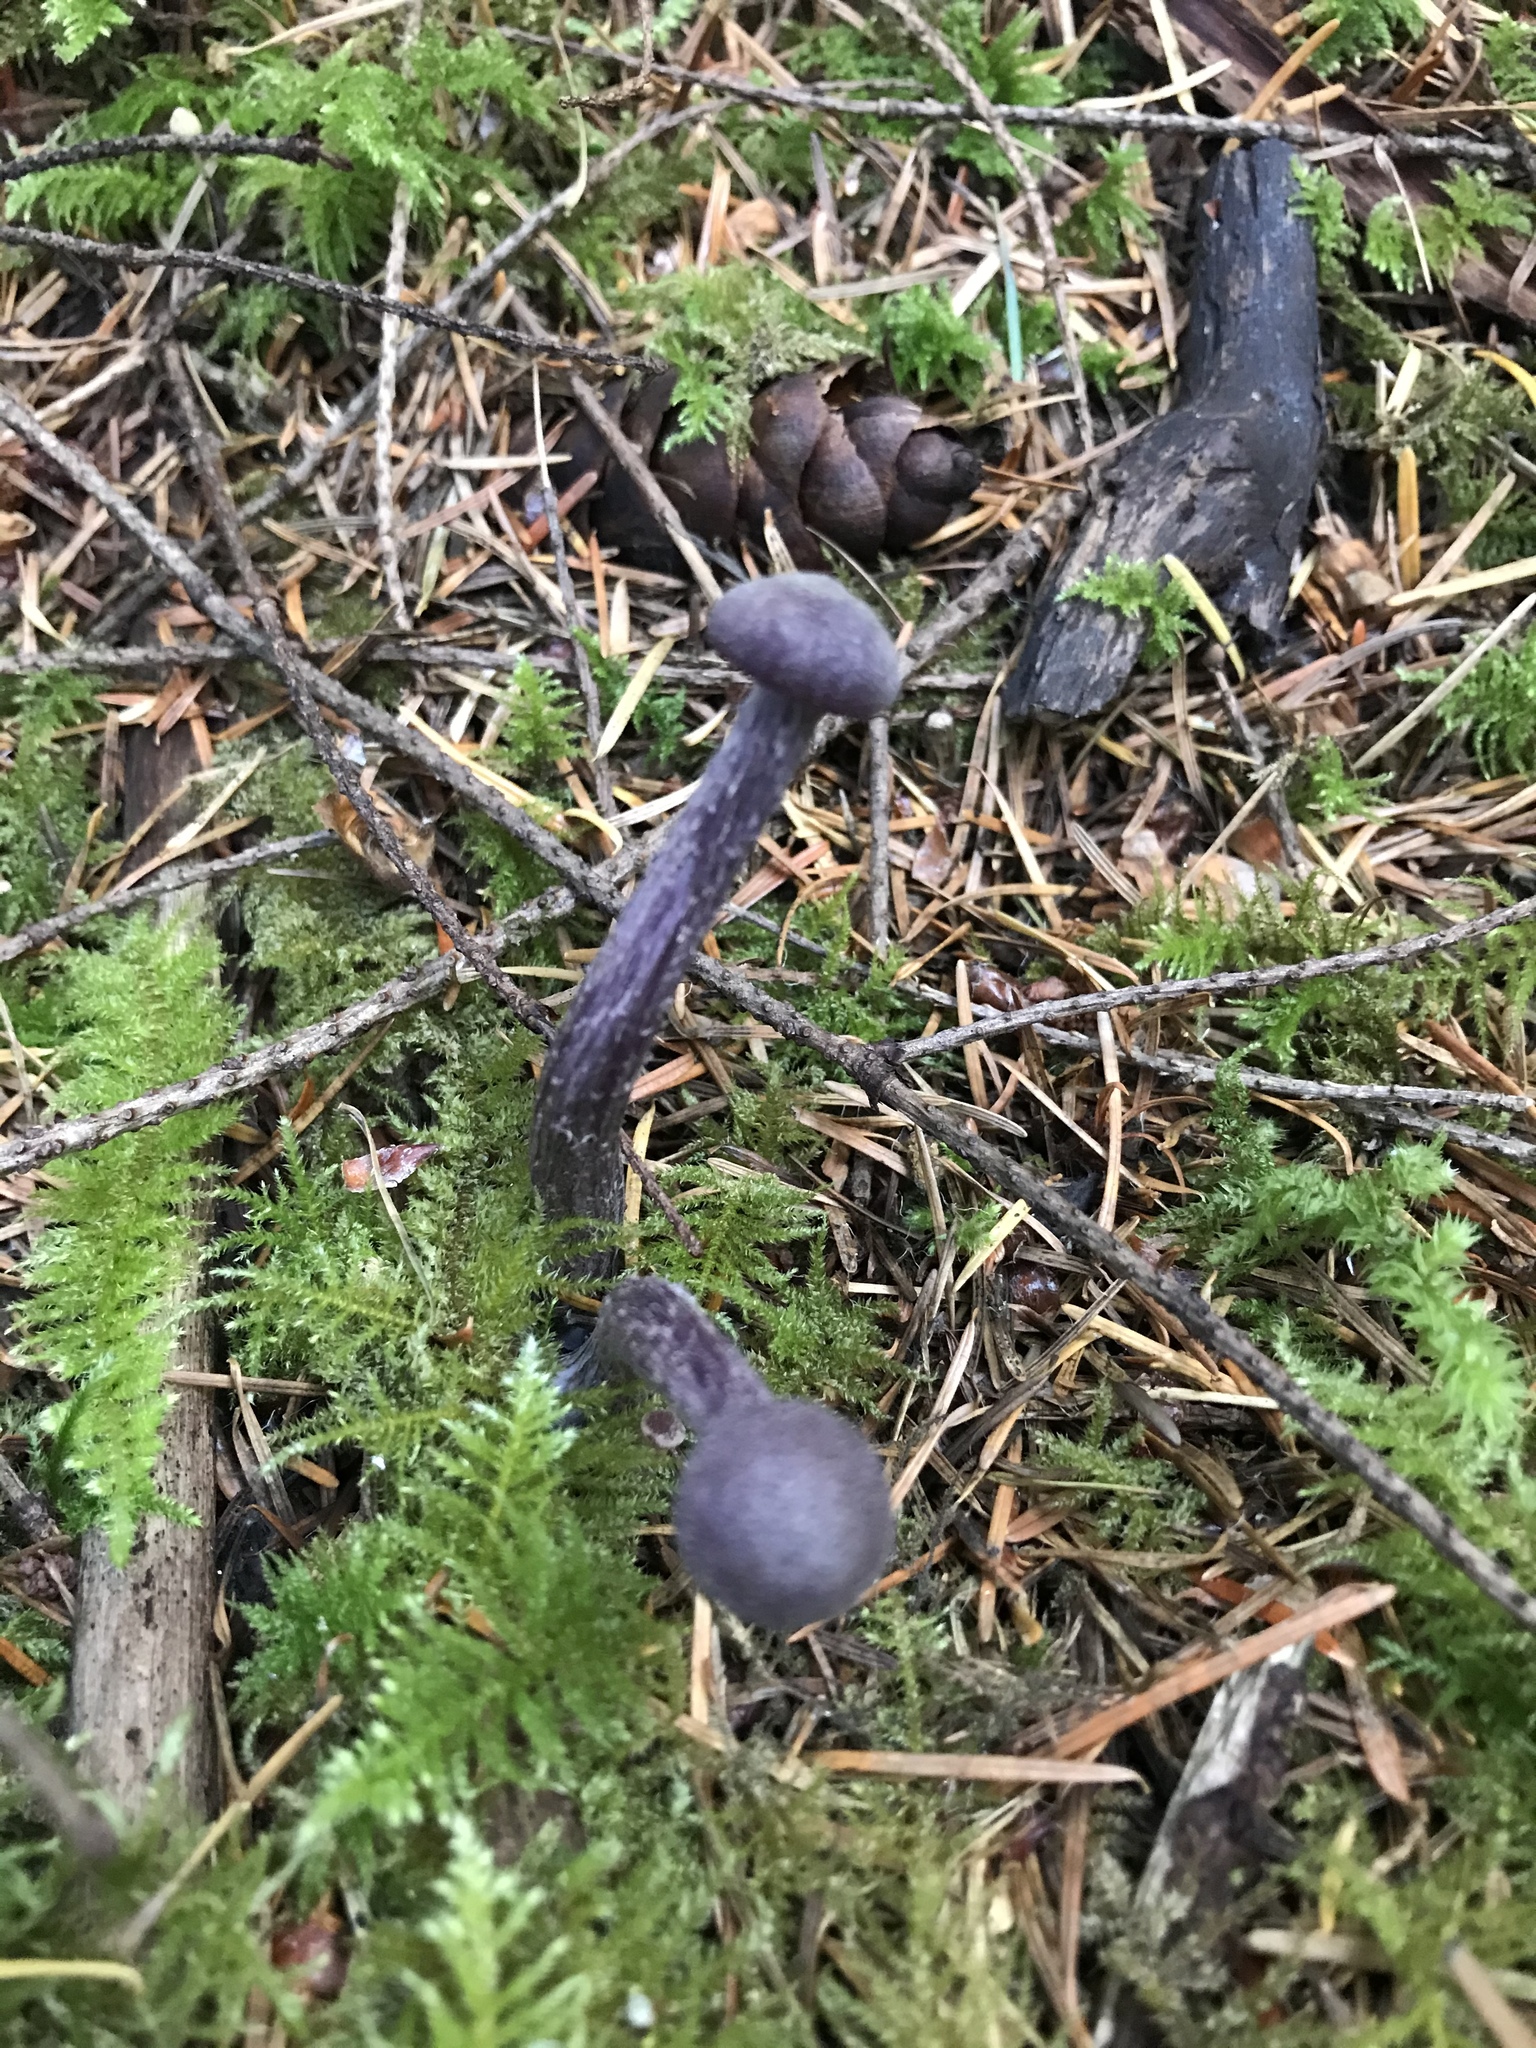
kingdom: Fungi
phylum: Basidiomycota
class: Agaricomycetes
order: Agaricales
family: Hydnangiaceae
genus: Laccaria
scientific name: Laccaria amethysteo-occidentalis
